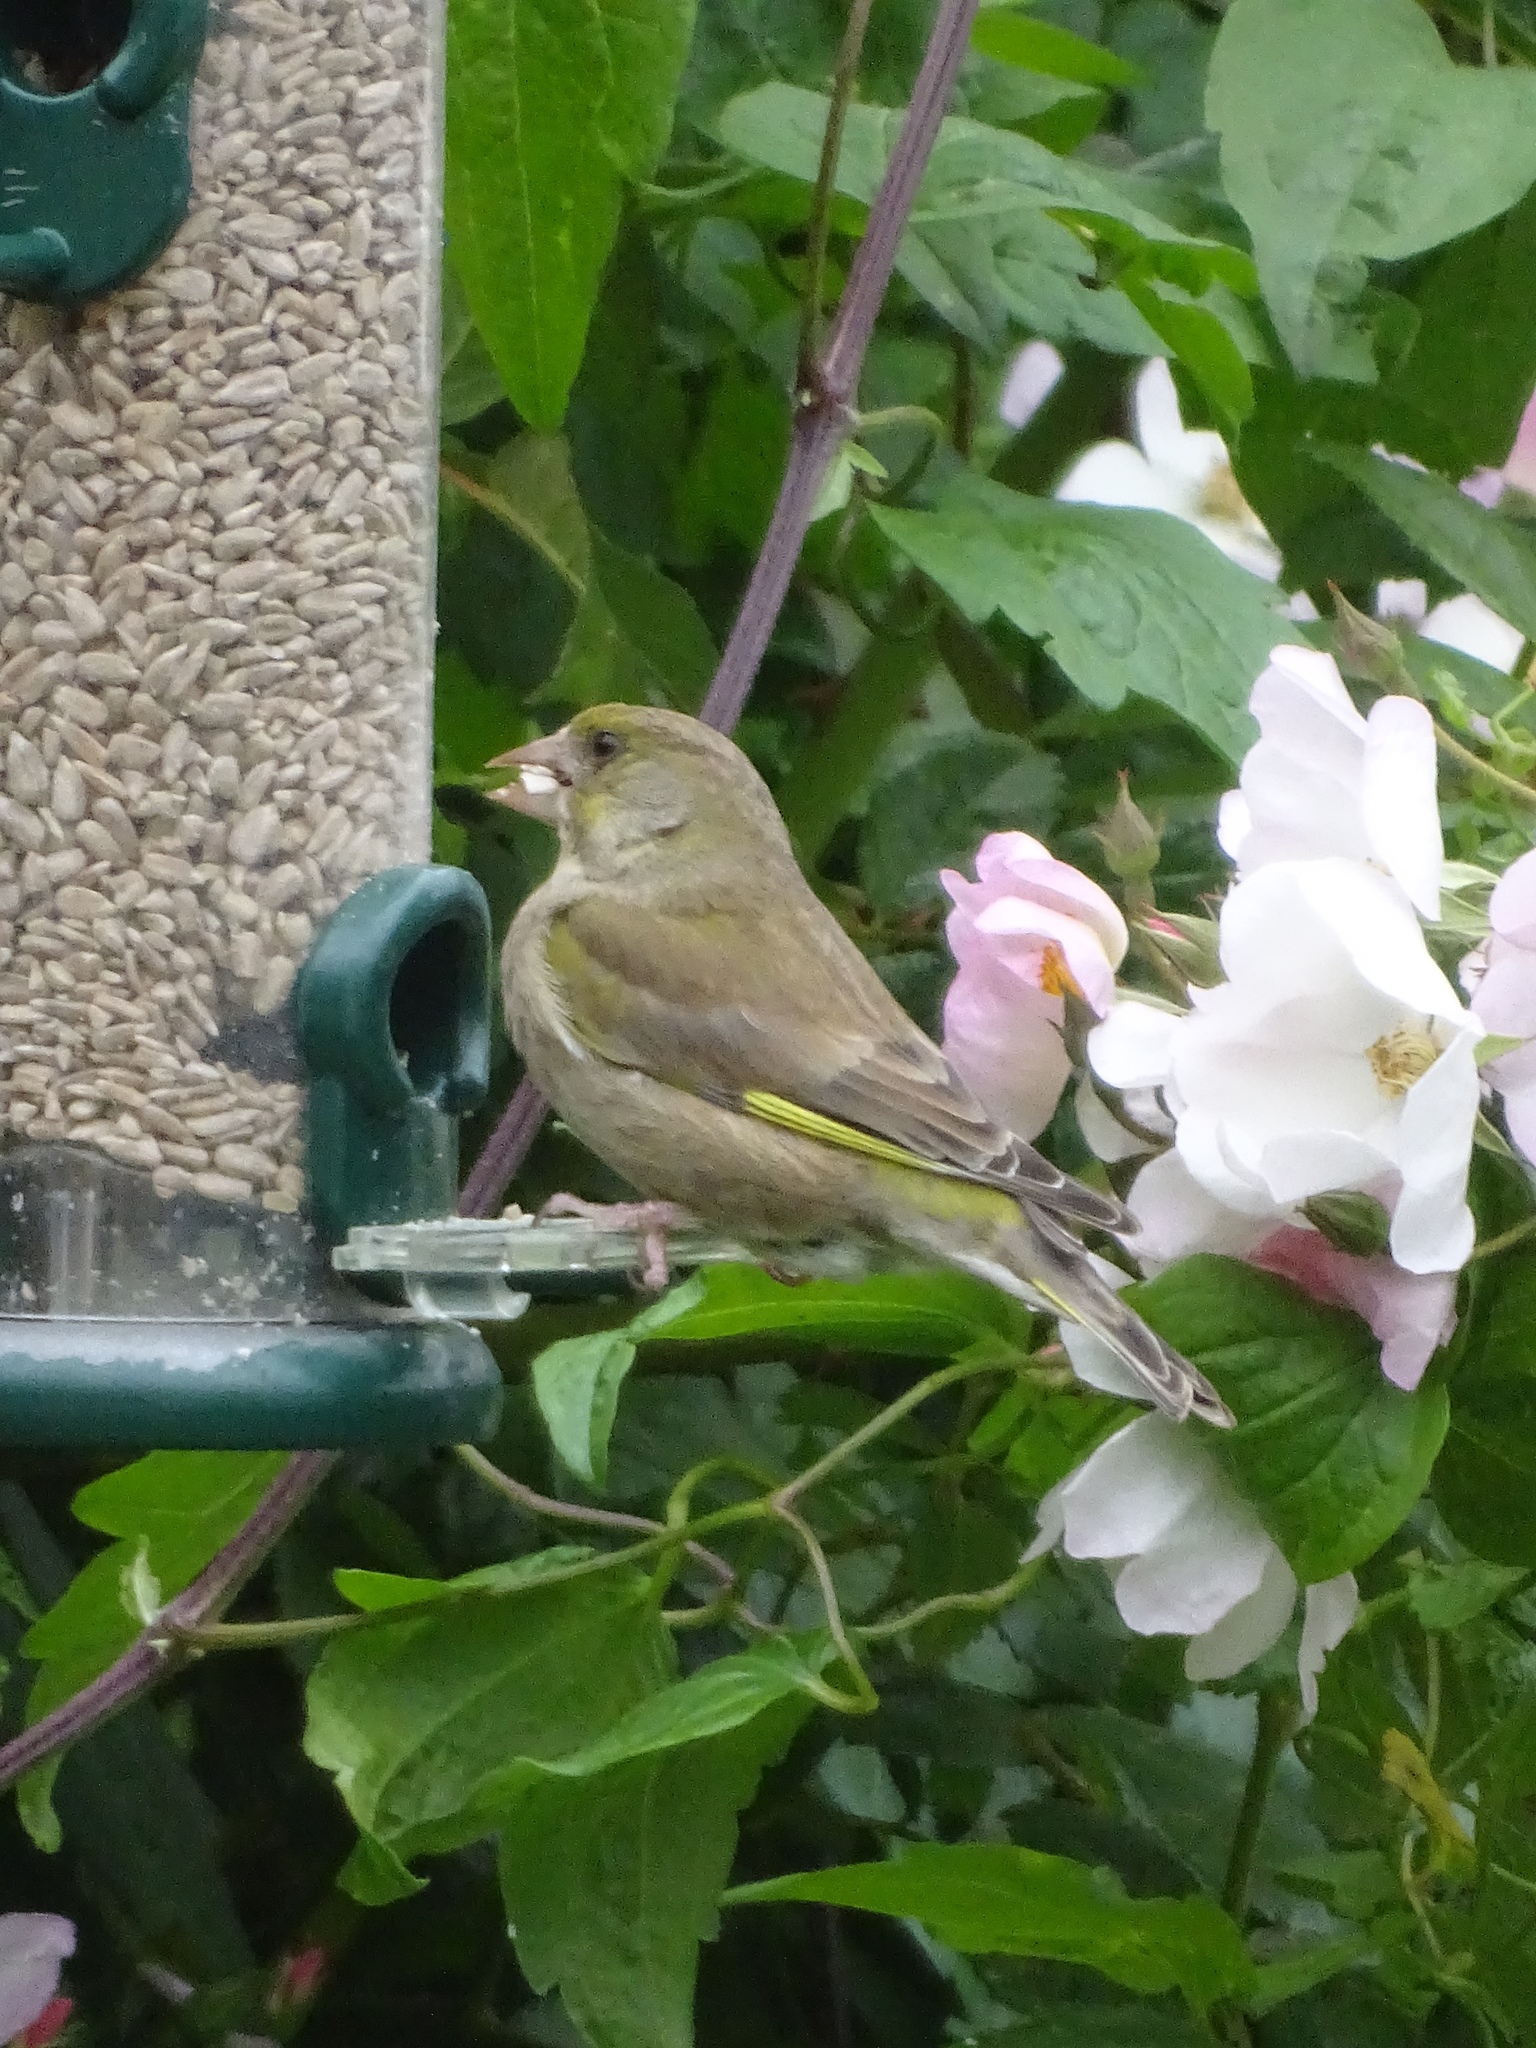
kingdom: Plantae
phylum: Tracheophyta
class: Liliopsida
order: Poales
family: Poaceae
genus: Chloris
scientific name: Chloris chloris
